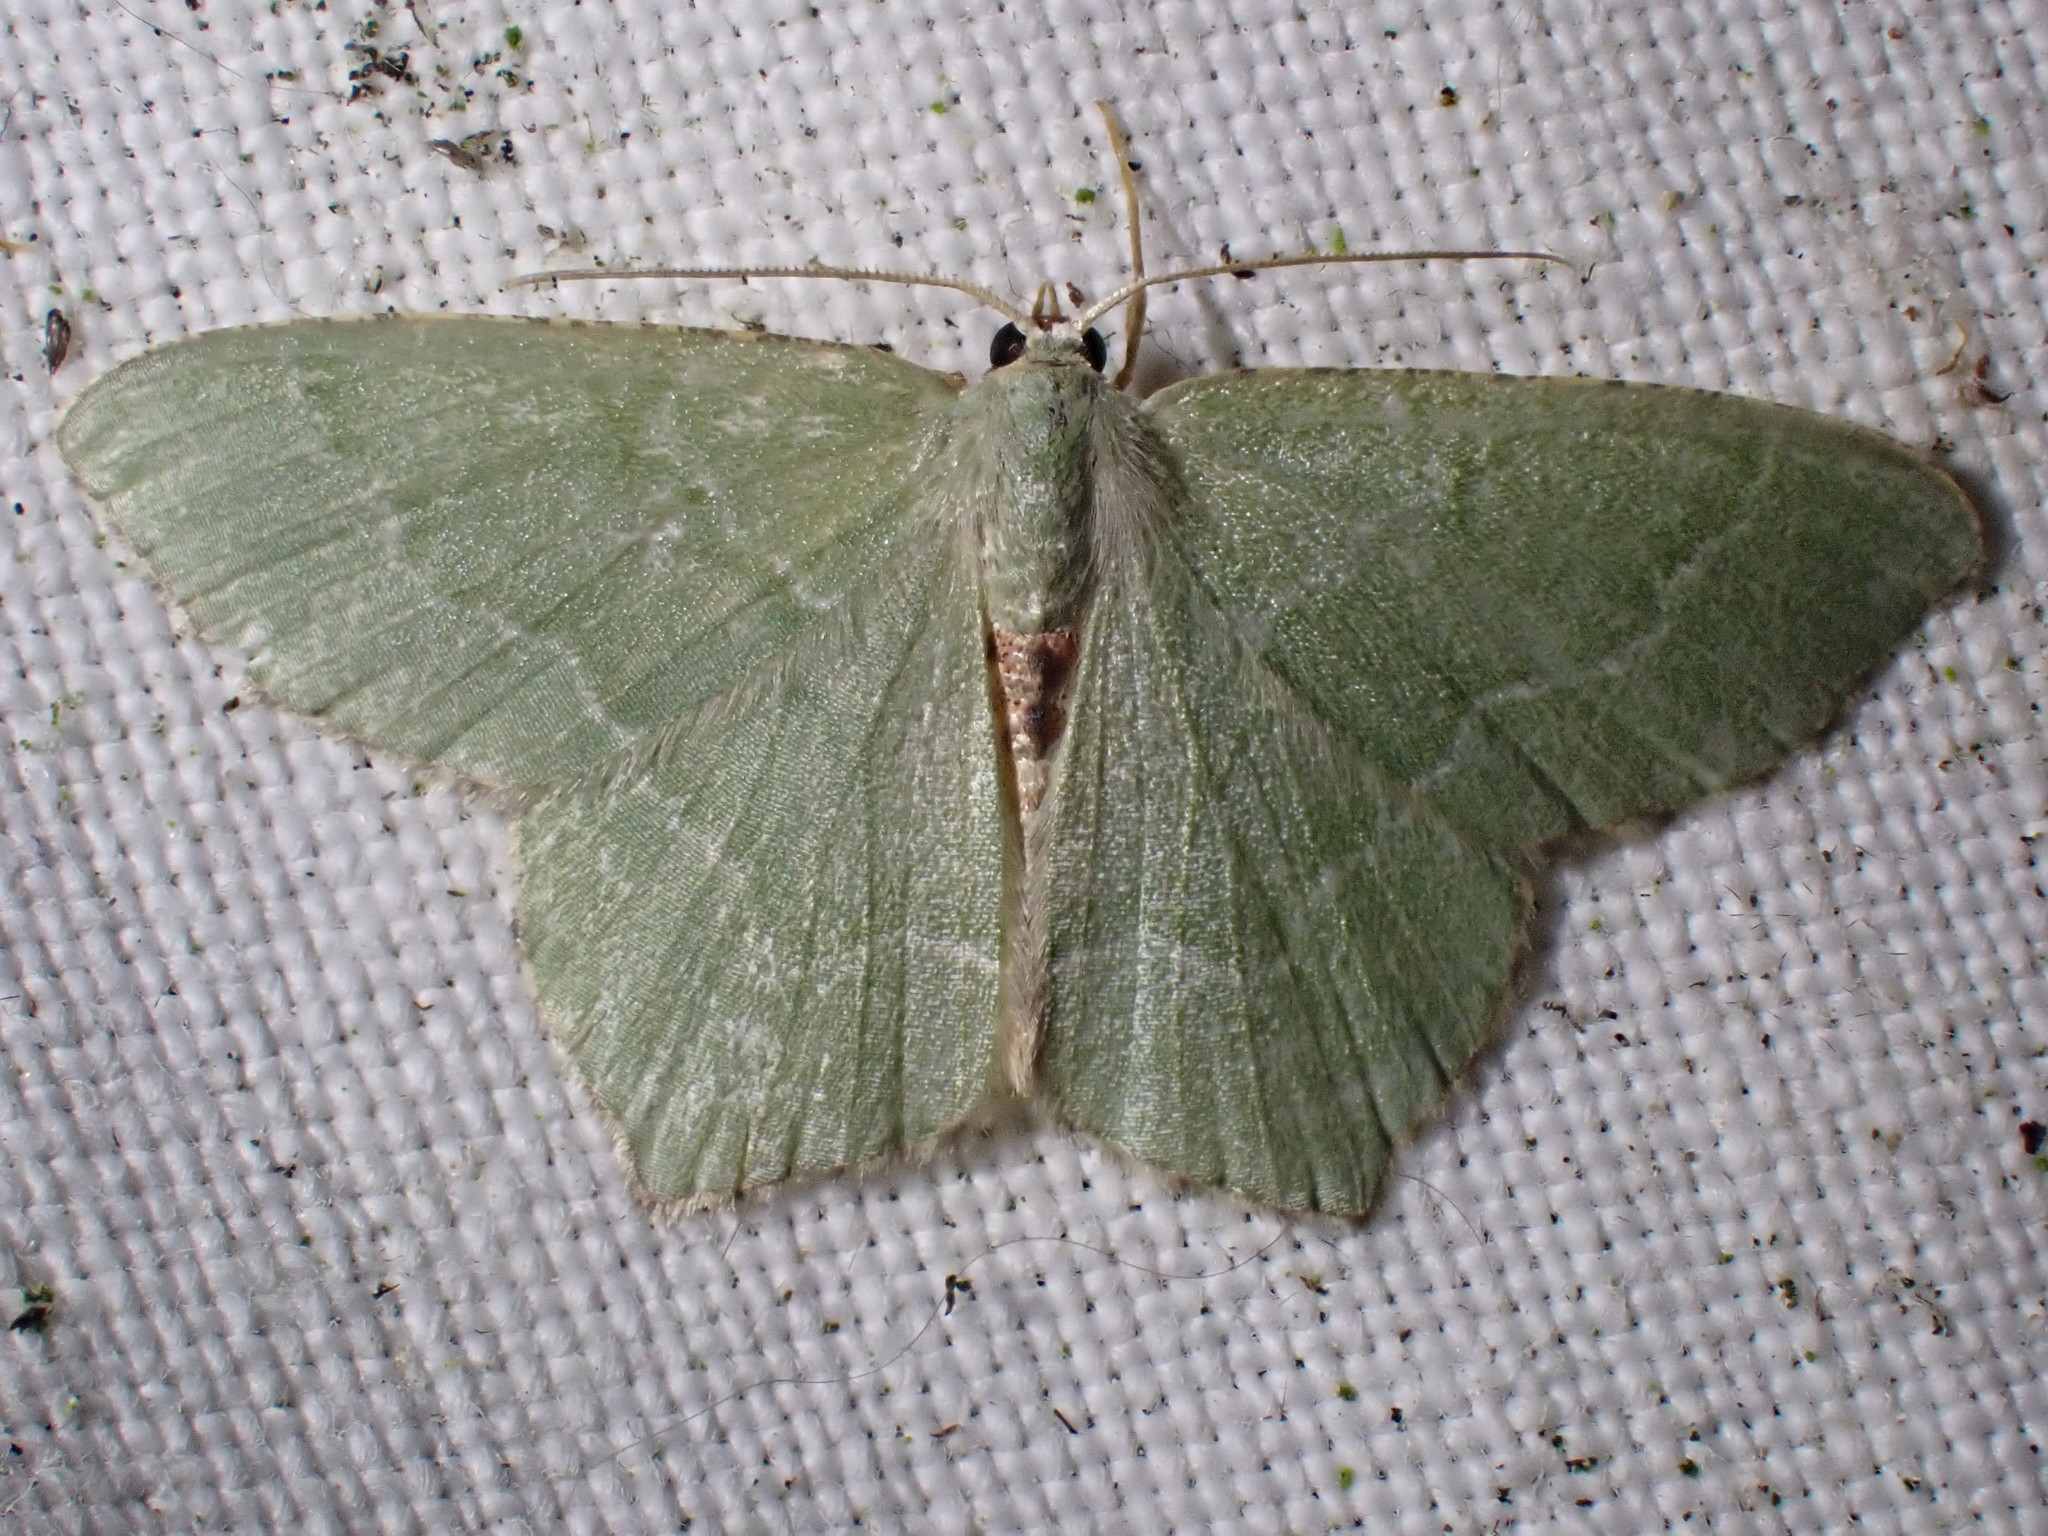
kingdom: Animalia
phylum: Arthropoda
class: Insecta
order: Lepidoptera
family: Geometridae
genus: Hemithea
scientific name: Hemithea aestivaria
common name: Common emerald
